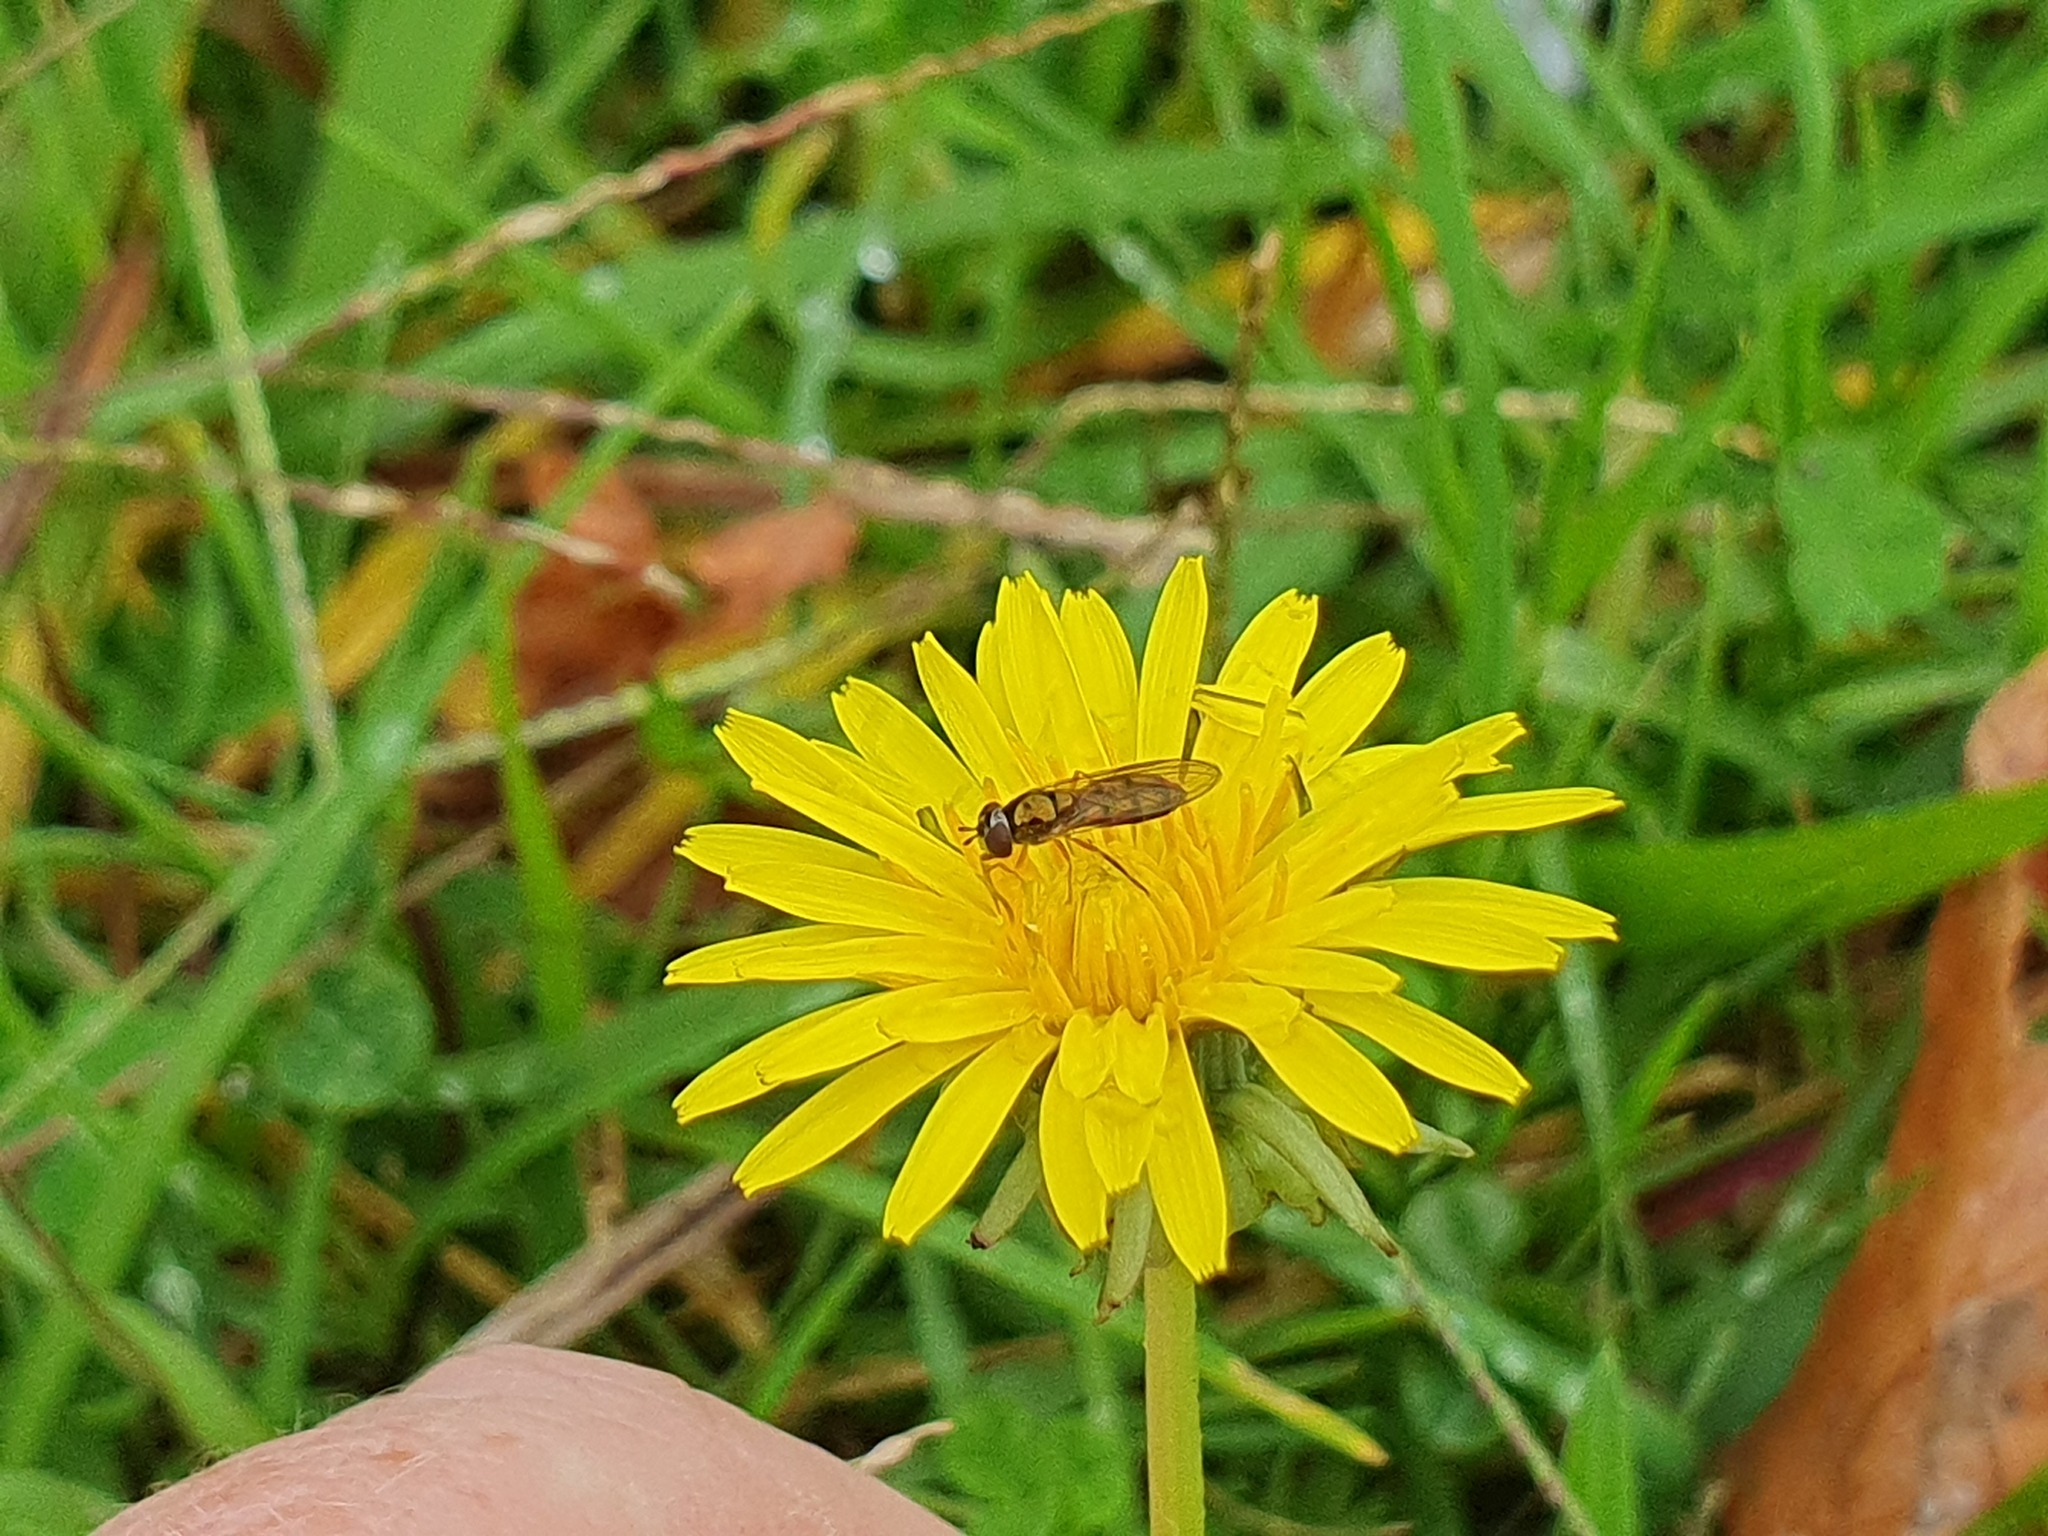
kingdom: Animalia
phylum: Arthropoda
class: Insecta
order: Diptera
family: Syrphidae
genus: Melanostoma
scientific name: Melanostoma fasciatum
